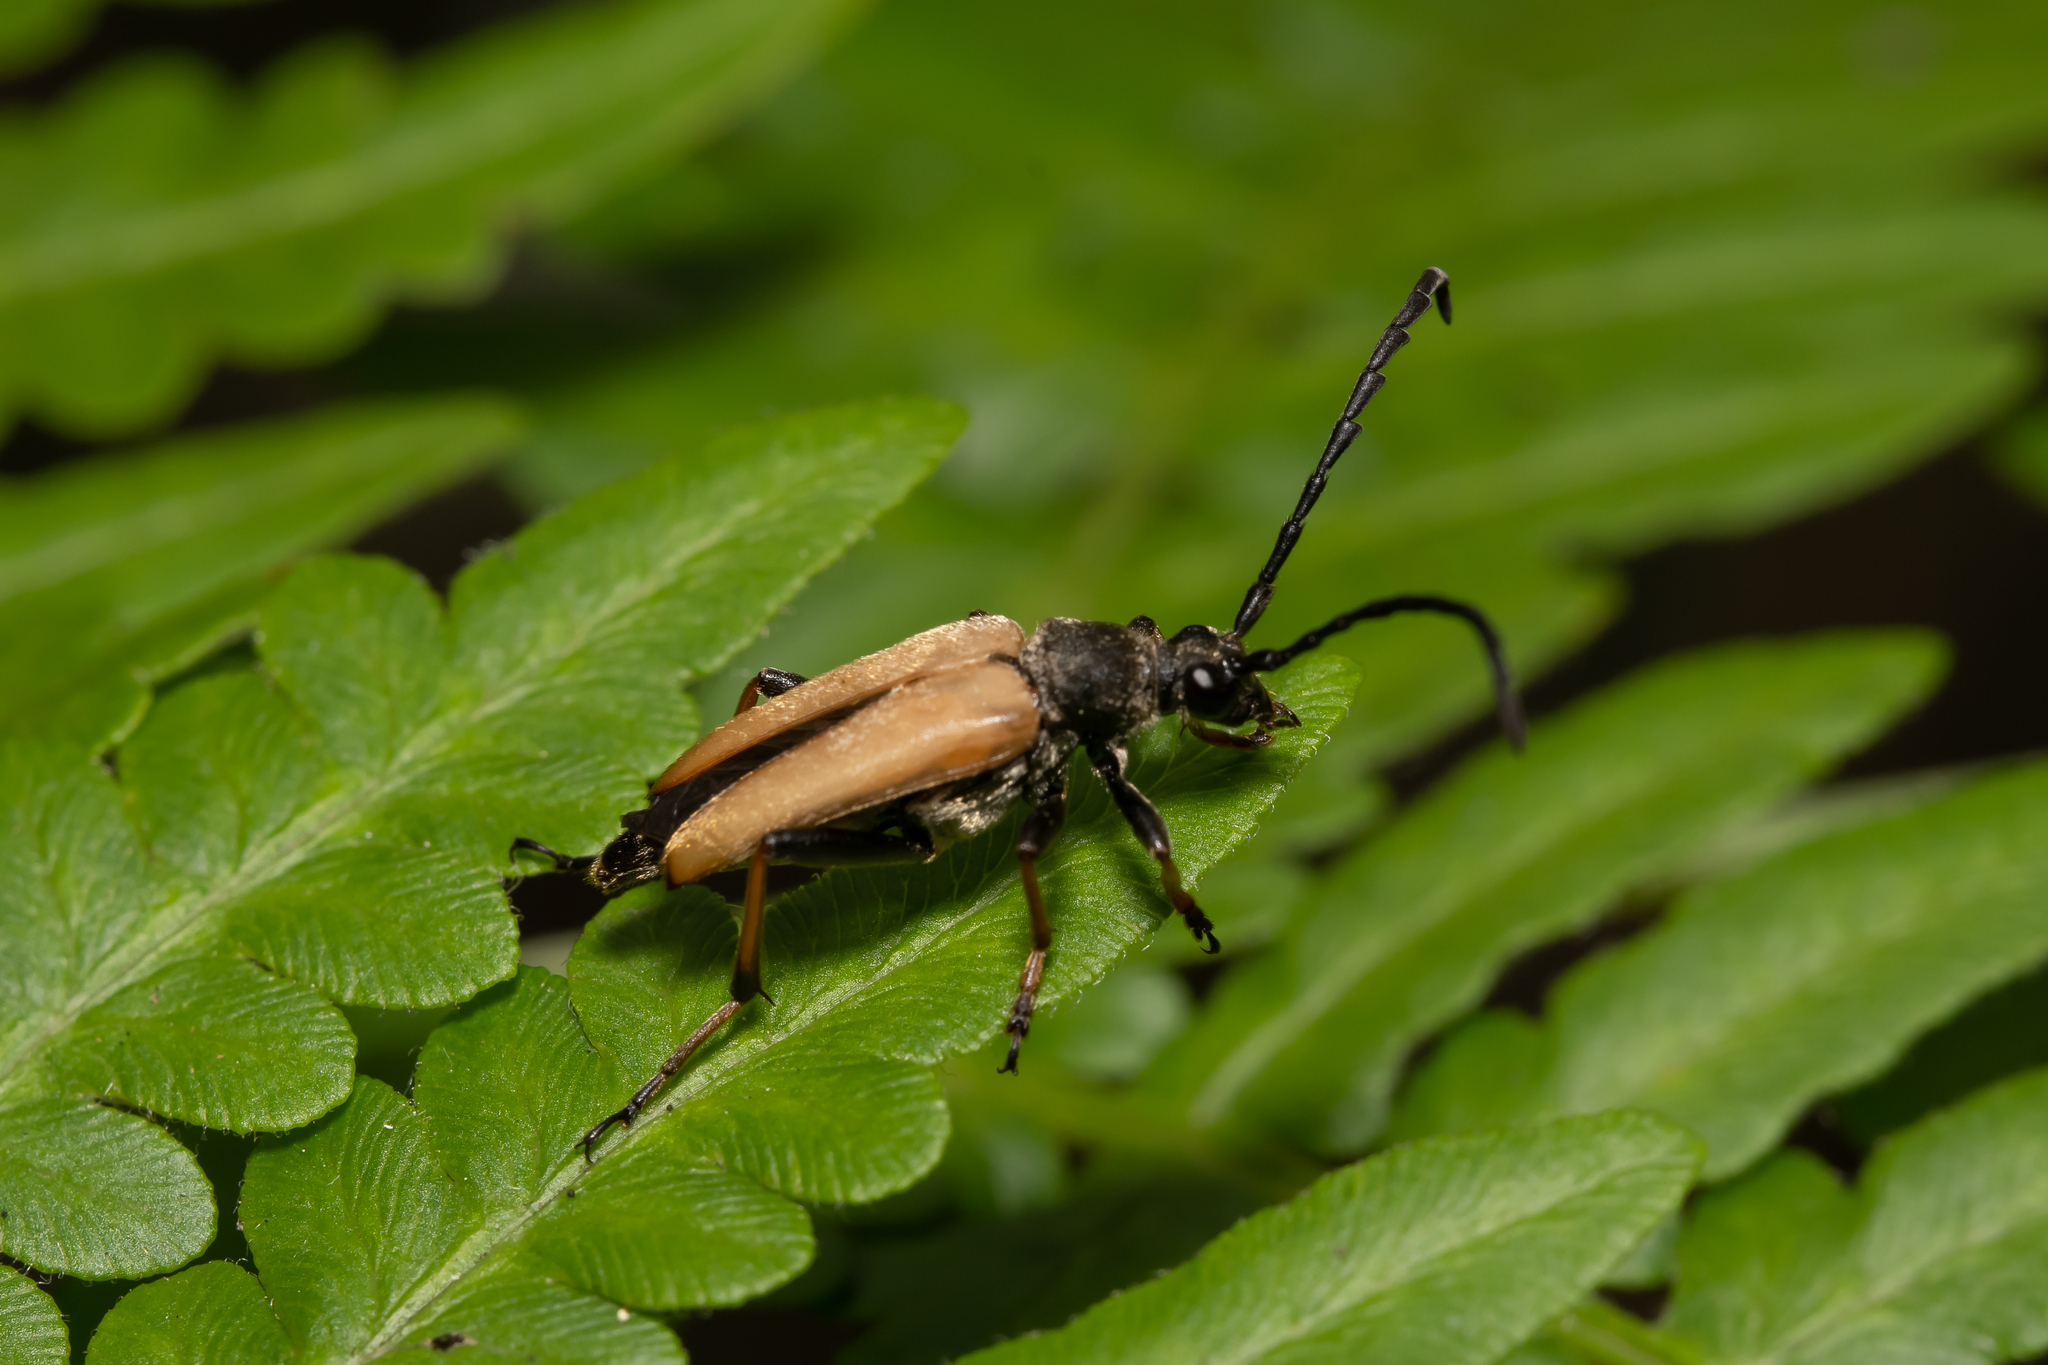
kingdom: Animalia
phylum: Arthropoda
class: Insecta
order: Coleoptera
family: Cerambycidae
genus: Stictoleptura
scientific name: Stictoleptura rubra
